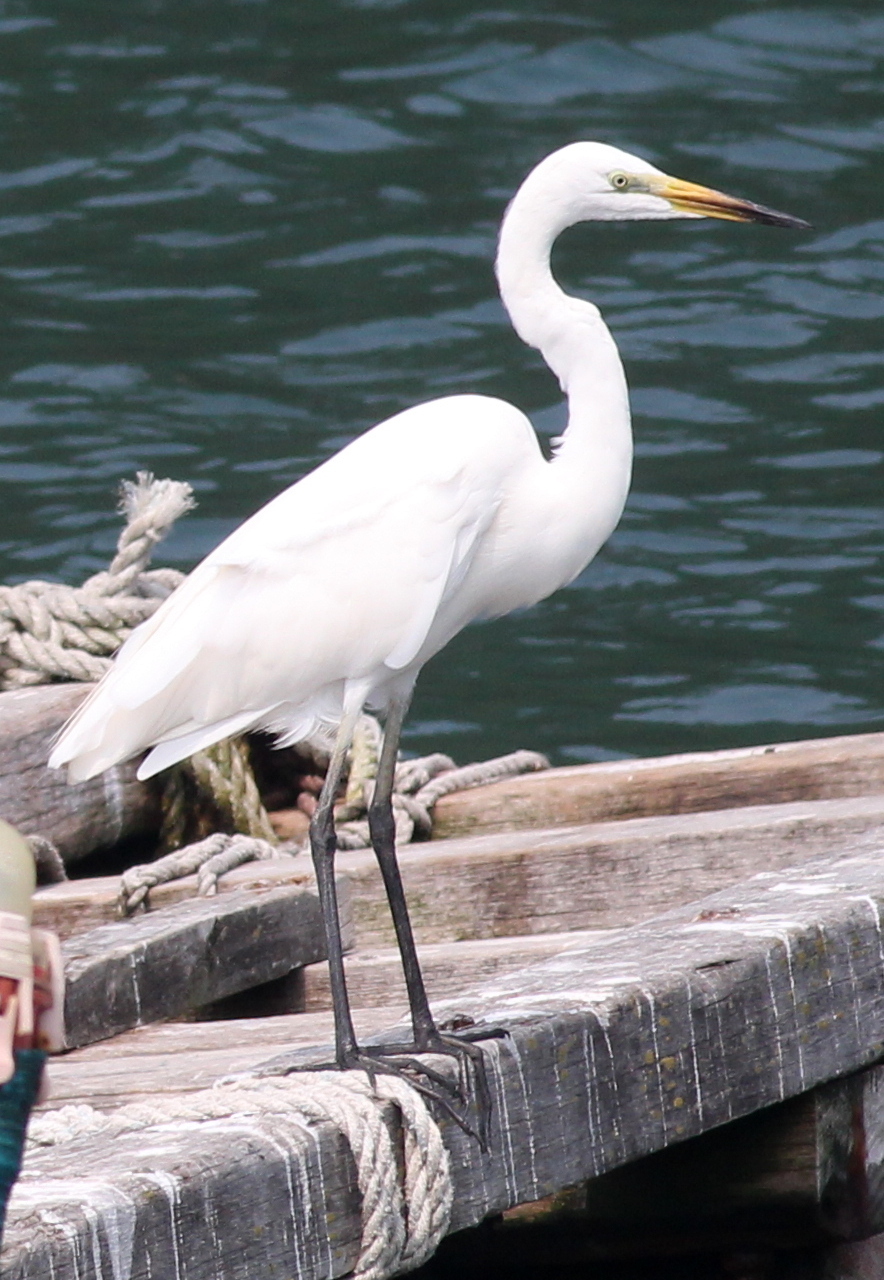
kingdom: Animalia
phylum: Chordata
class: Aves
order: Pelecaniformes
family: Ardeidae
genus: Ardea
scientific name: Ardea alba
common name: Great egret
